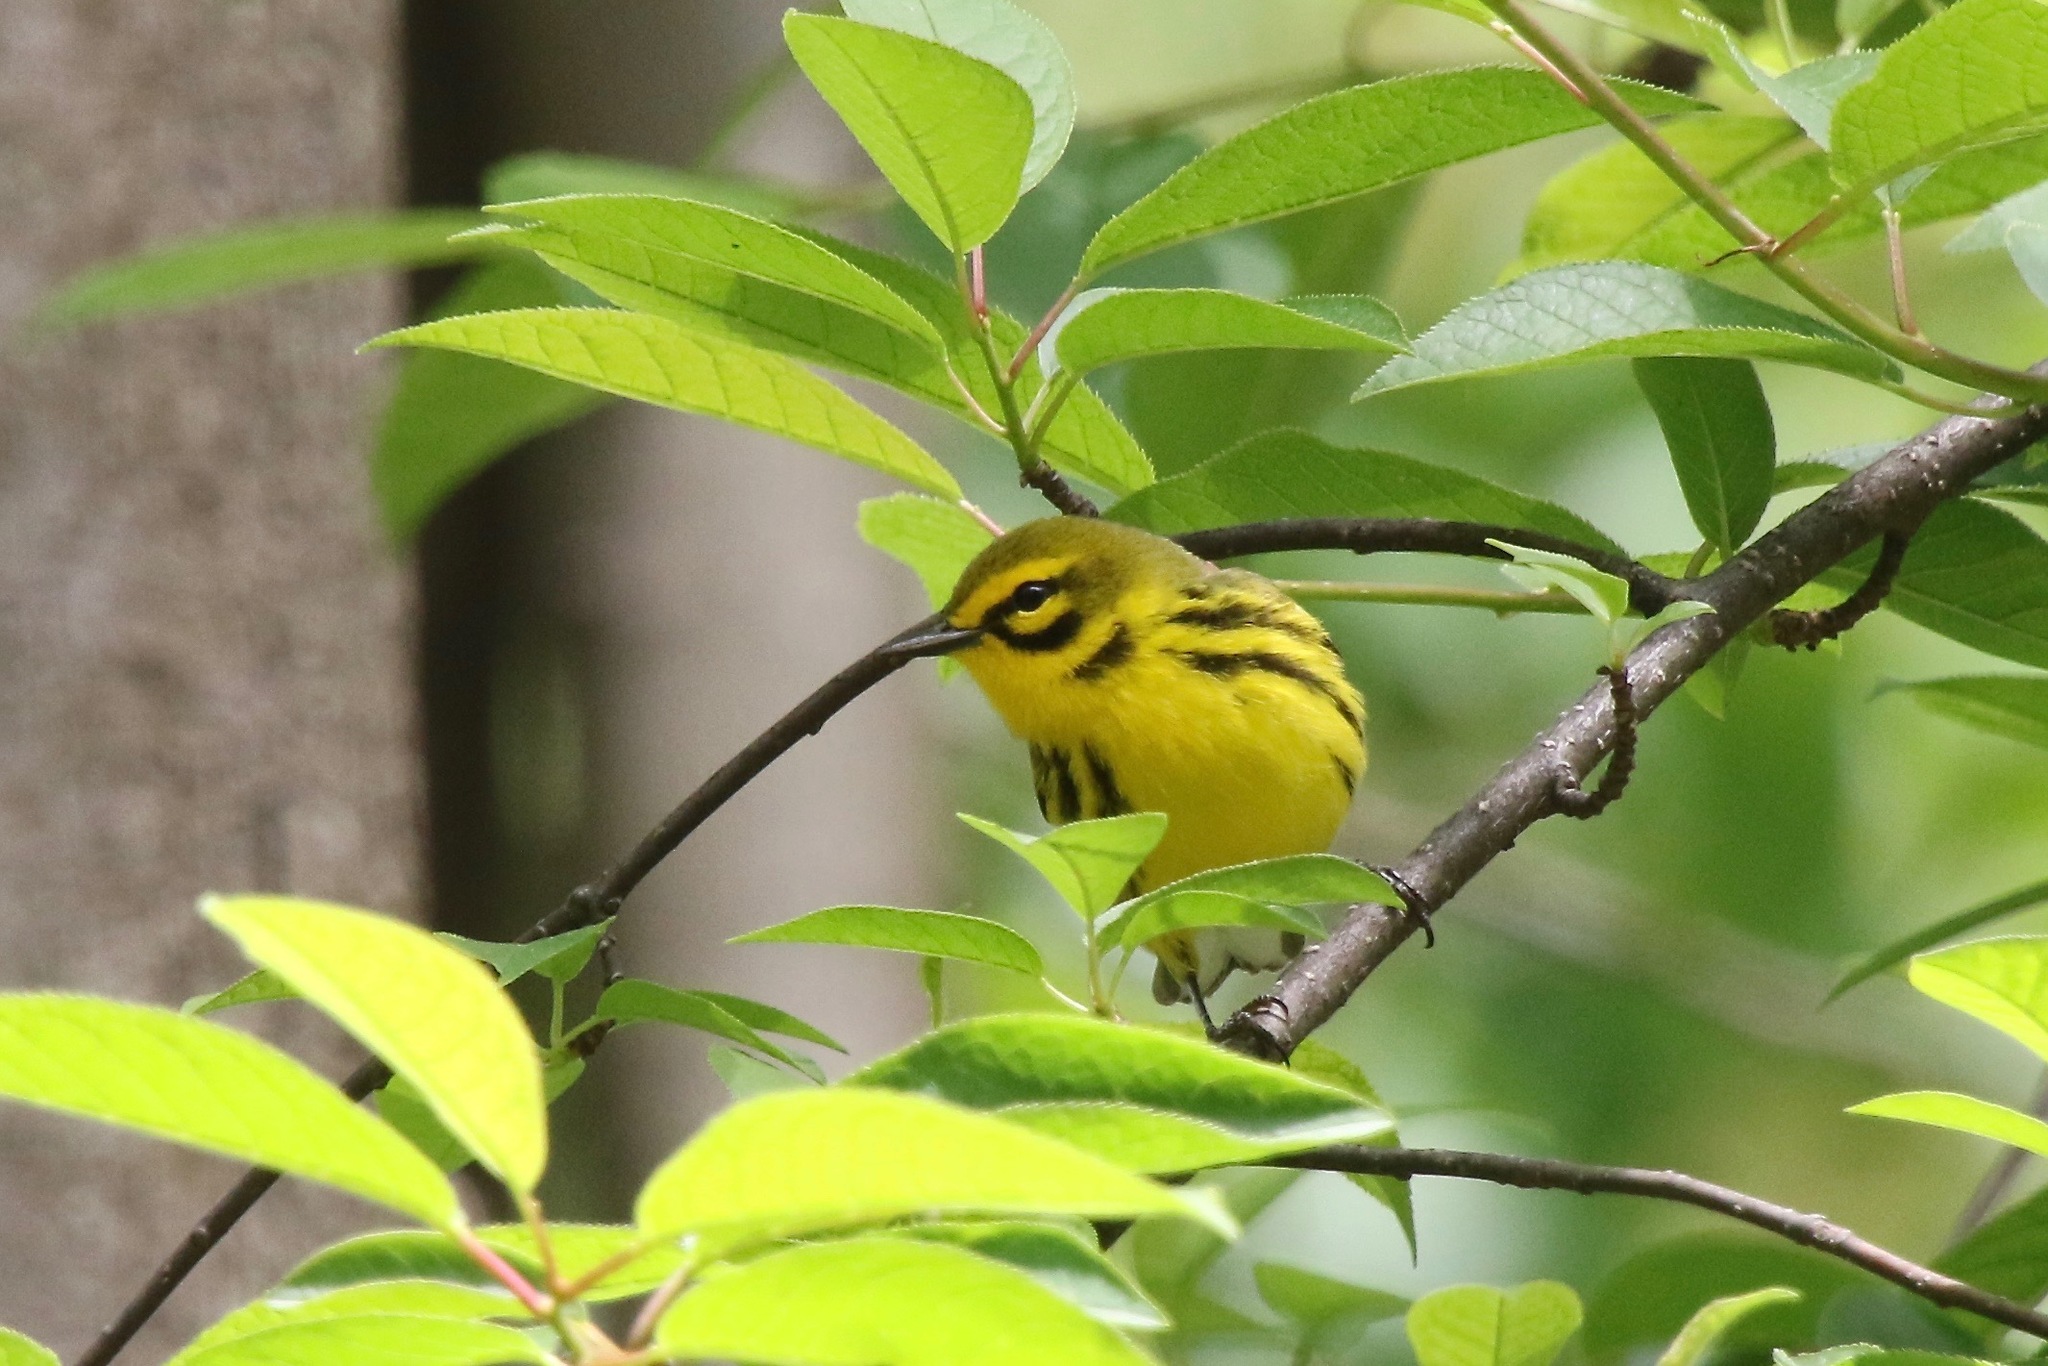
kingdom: Animalia
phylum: Chordata
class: Aves
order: Passeriformes
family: Parulidae
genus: Setophaga
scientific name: Setophaga discolor
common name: Prairie warbler
